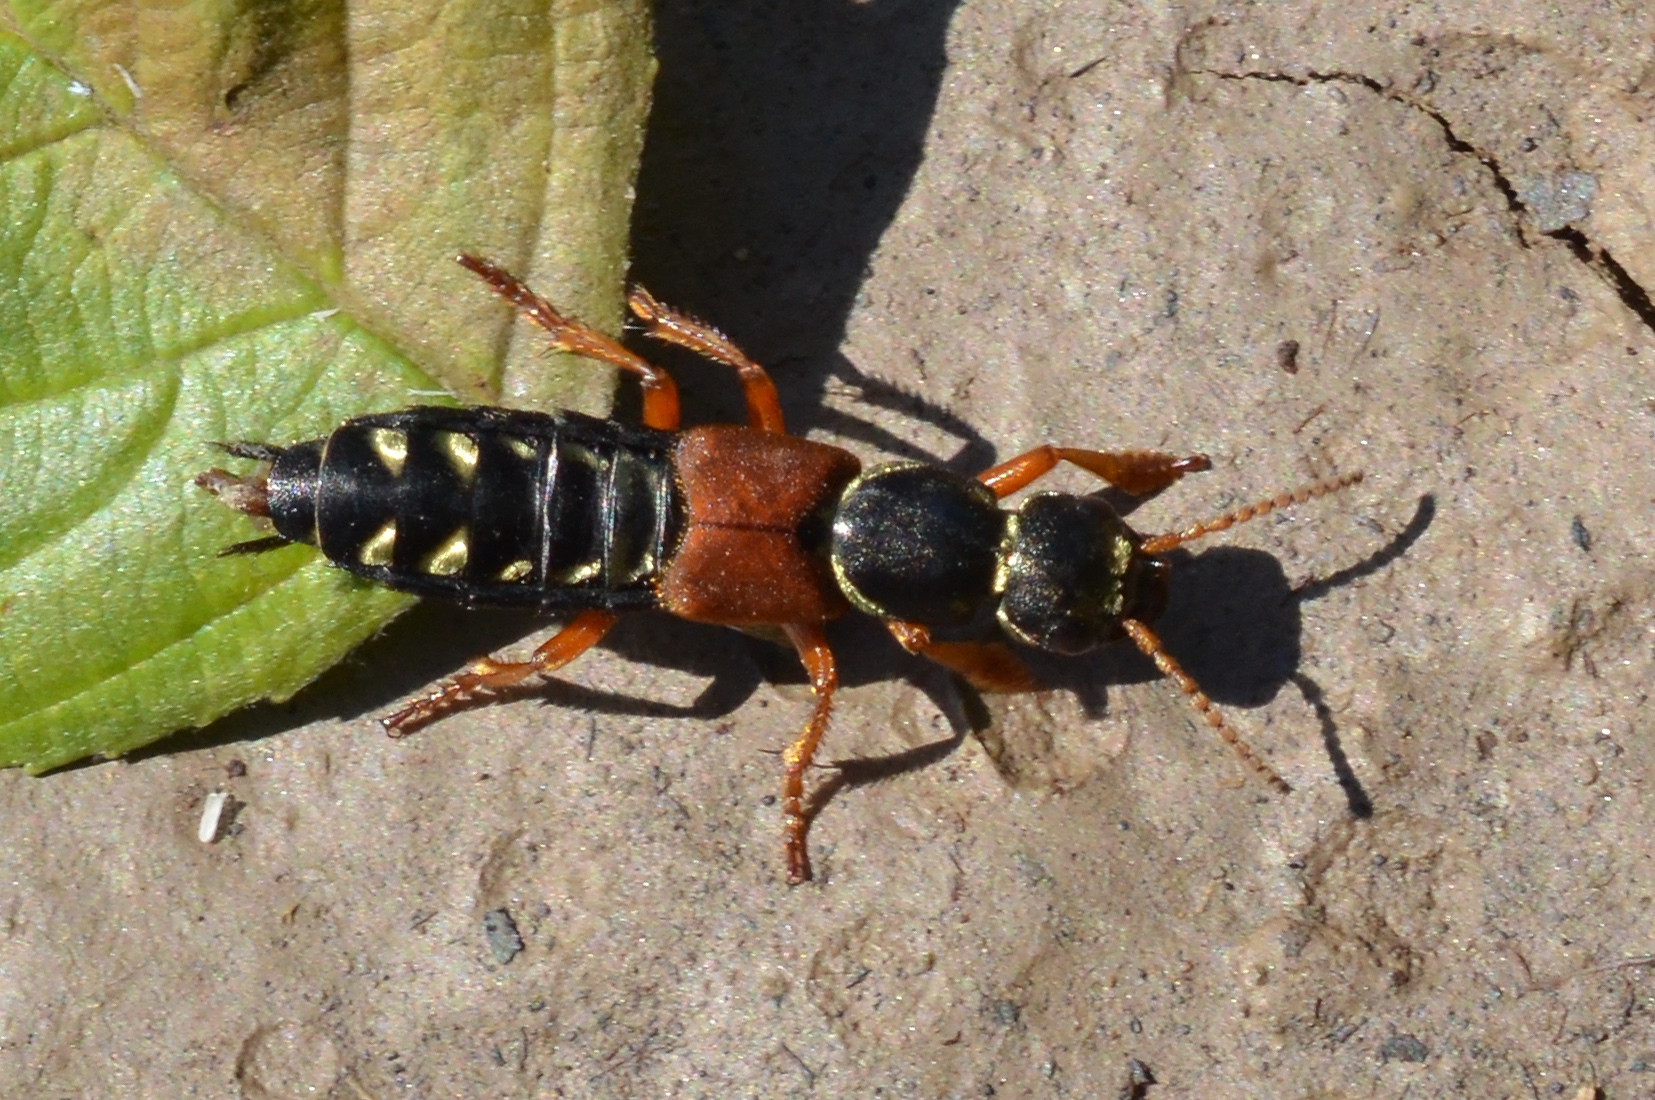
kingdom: Animalia
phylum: Arthropoda
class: Insecta
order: Coleoptera
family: Staphylinidae
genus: Staphylinus
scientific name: Staphylinus caesareus
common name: Staph beetle
